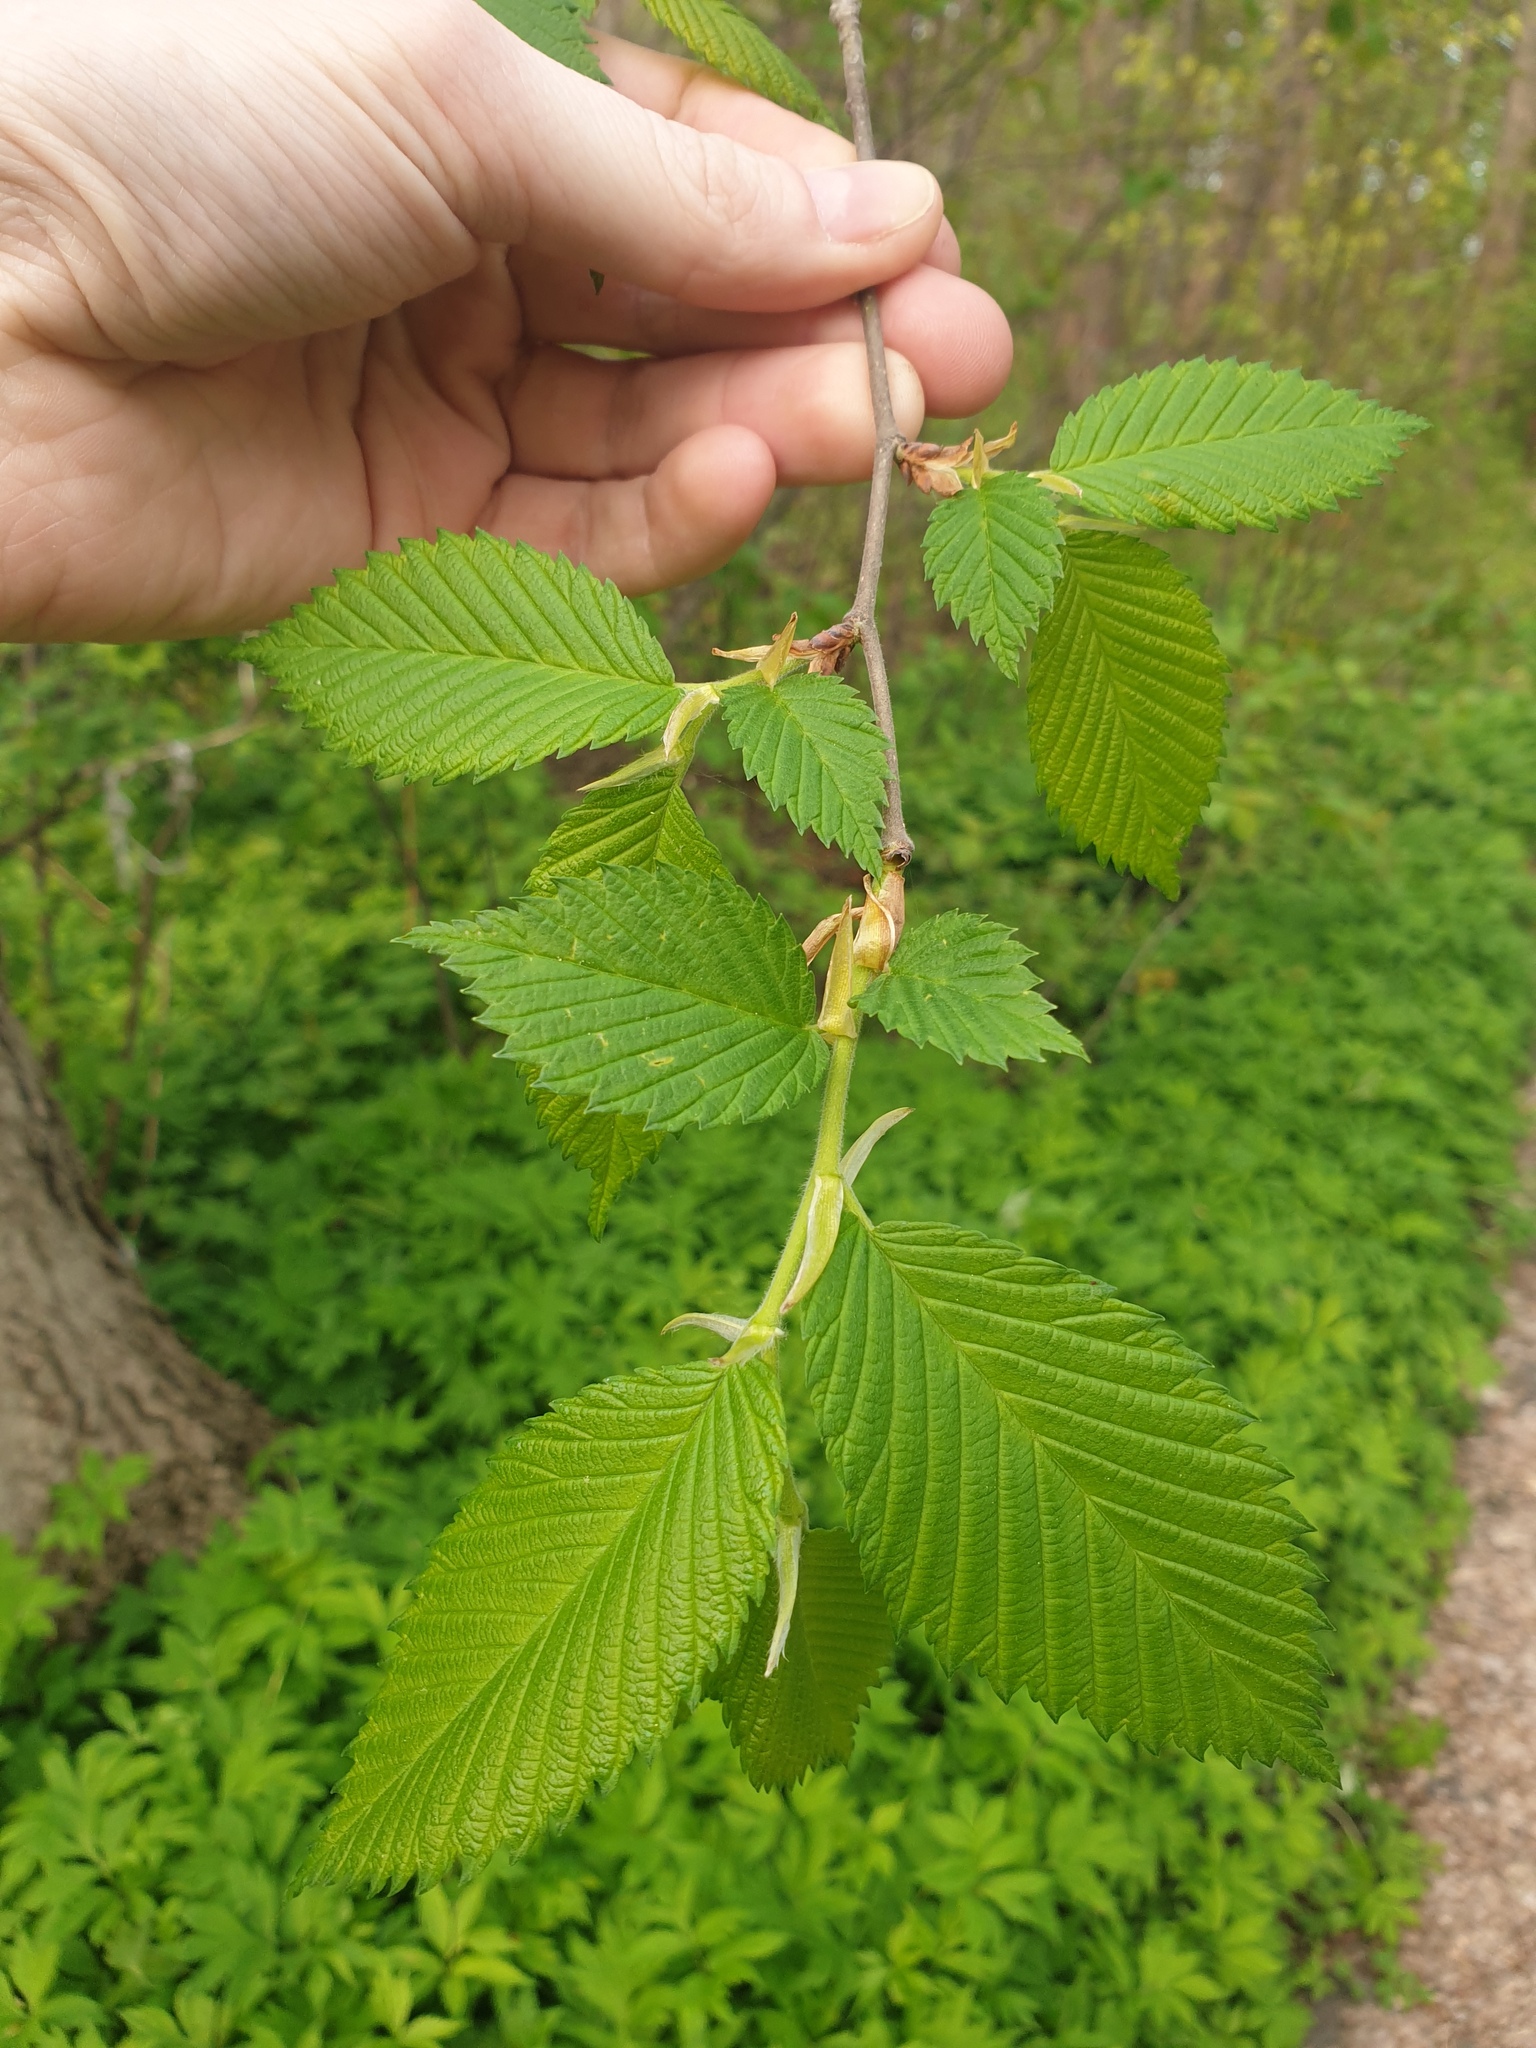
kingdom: Plantae
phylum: Tracheophyta
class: Magnoliopsida
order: Rosales
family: Ulmaceae
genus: Ulmus
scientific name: Ulmus americana
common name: American elm
